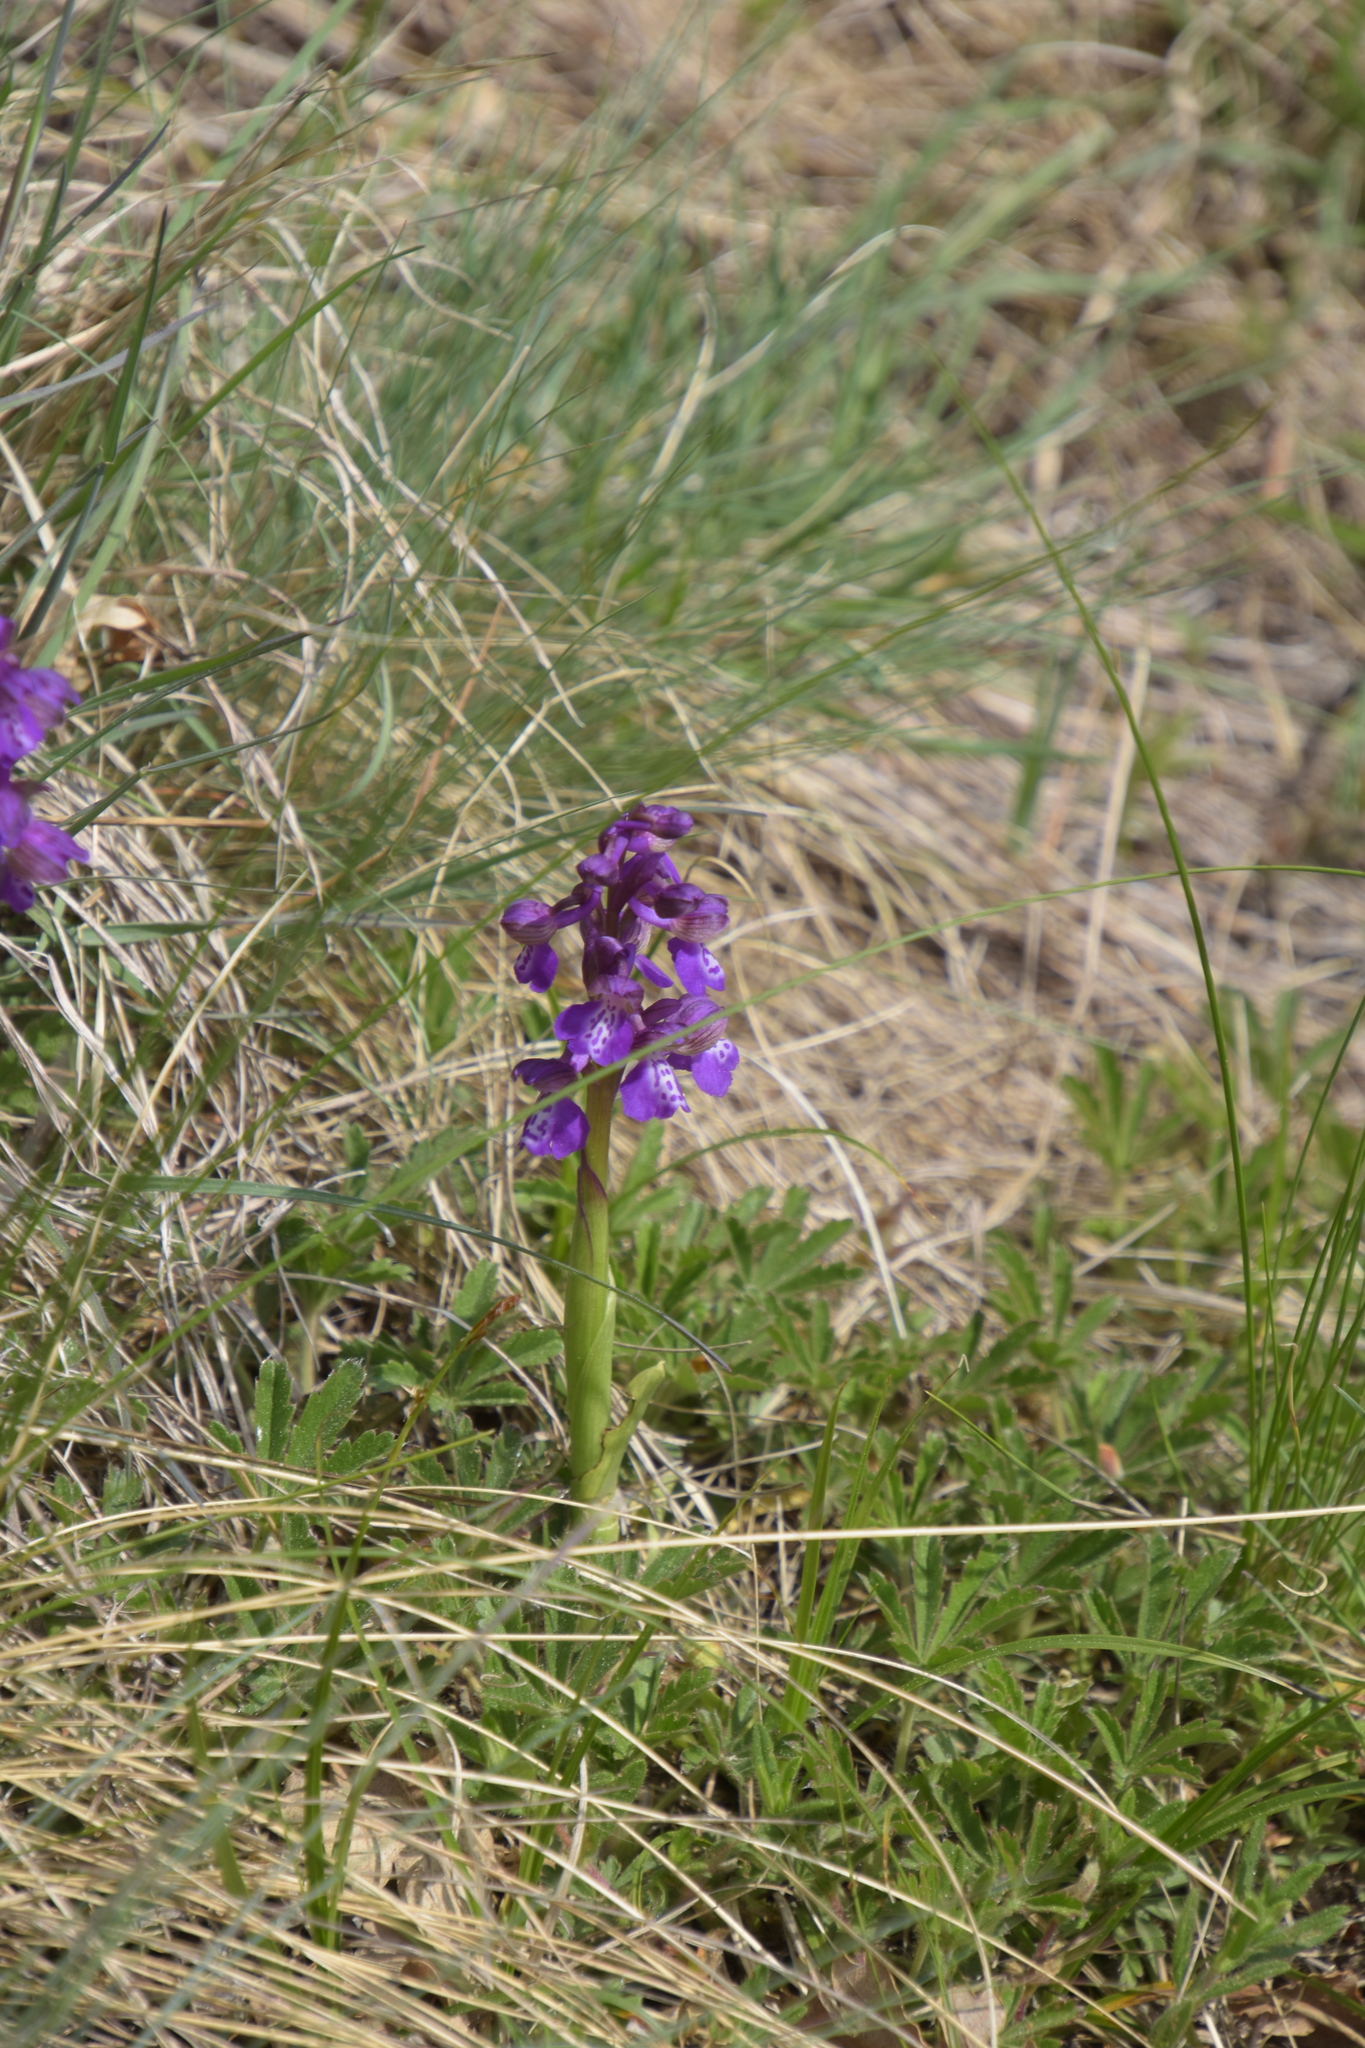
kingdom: Plantae
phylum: Tracheophyta
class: Liliopsida
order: Asparagales
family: Orchidaceae
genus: Anacamptis
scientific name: Anacamptis morio
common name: Green-winged orchid
